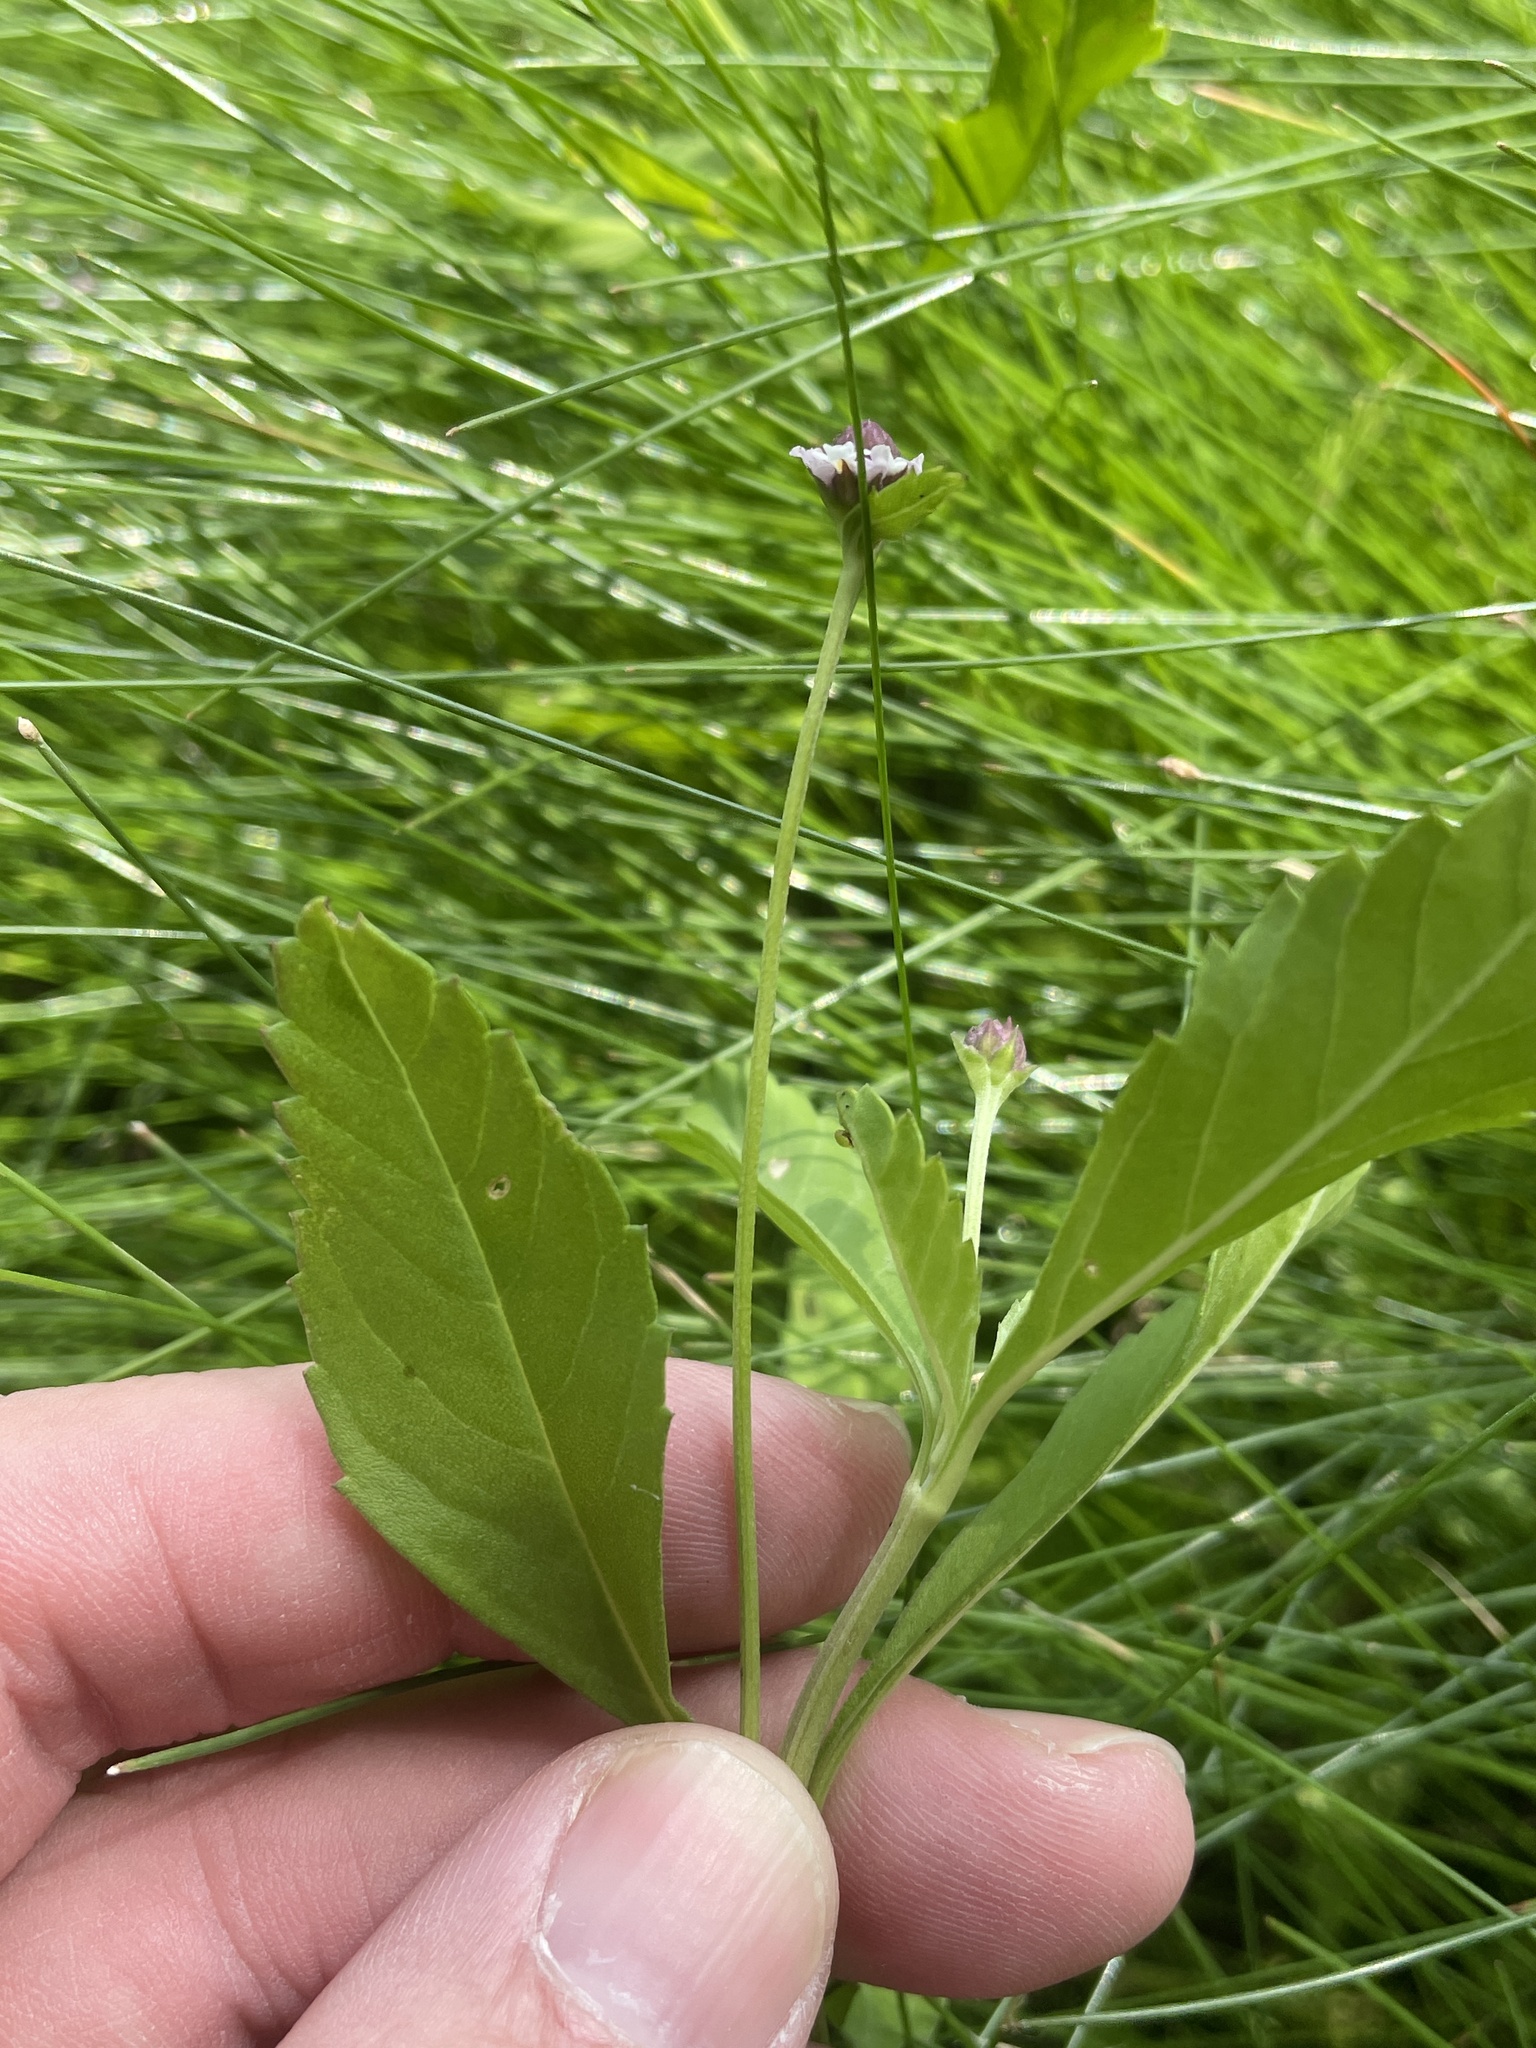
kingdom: Plantae
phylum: Tracheophyta
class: Magnoliopsida
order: Lamiales
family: Verbenaceae
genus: Phyla
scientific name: Phyla lanceolata
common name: Northern fogfruit
